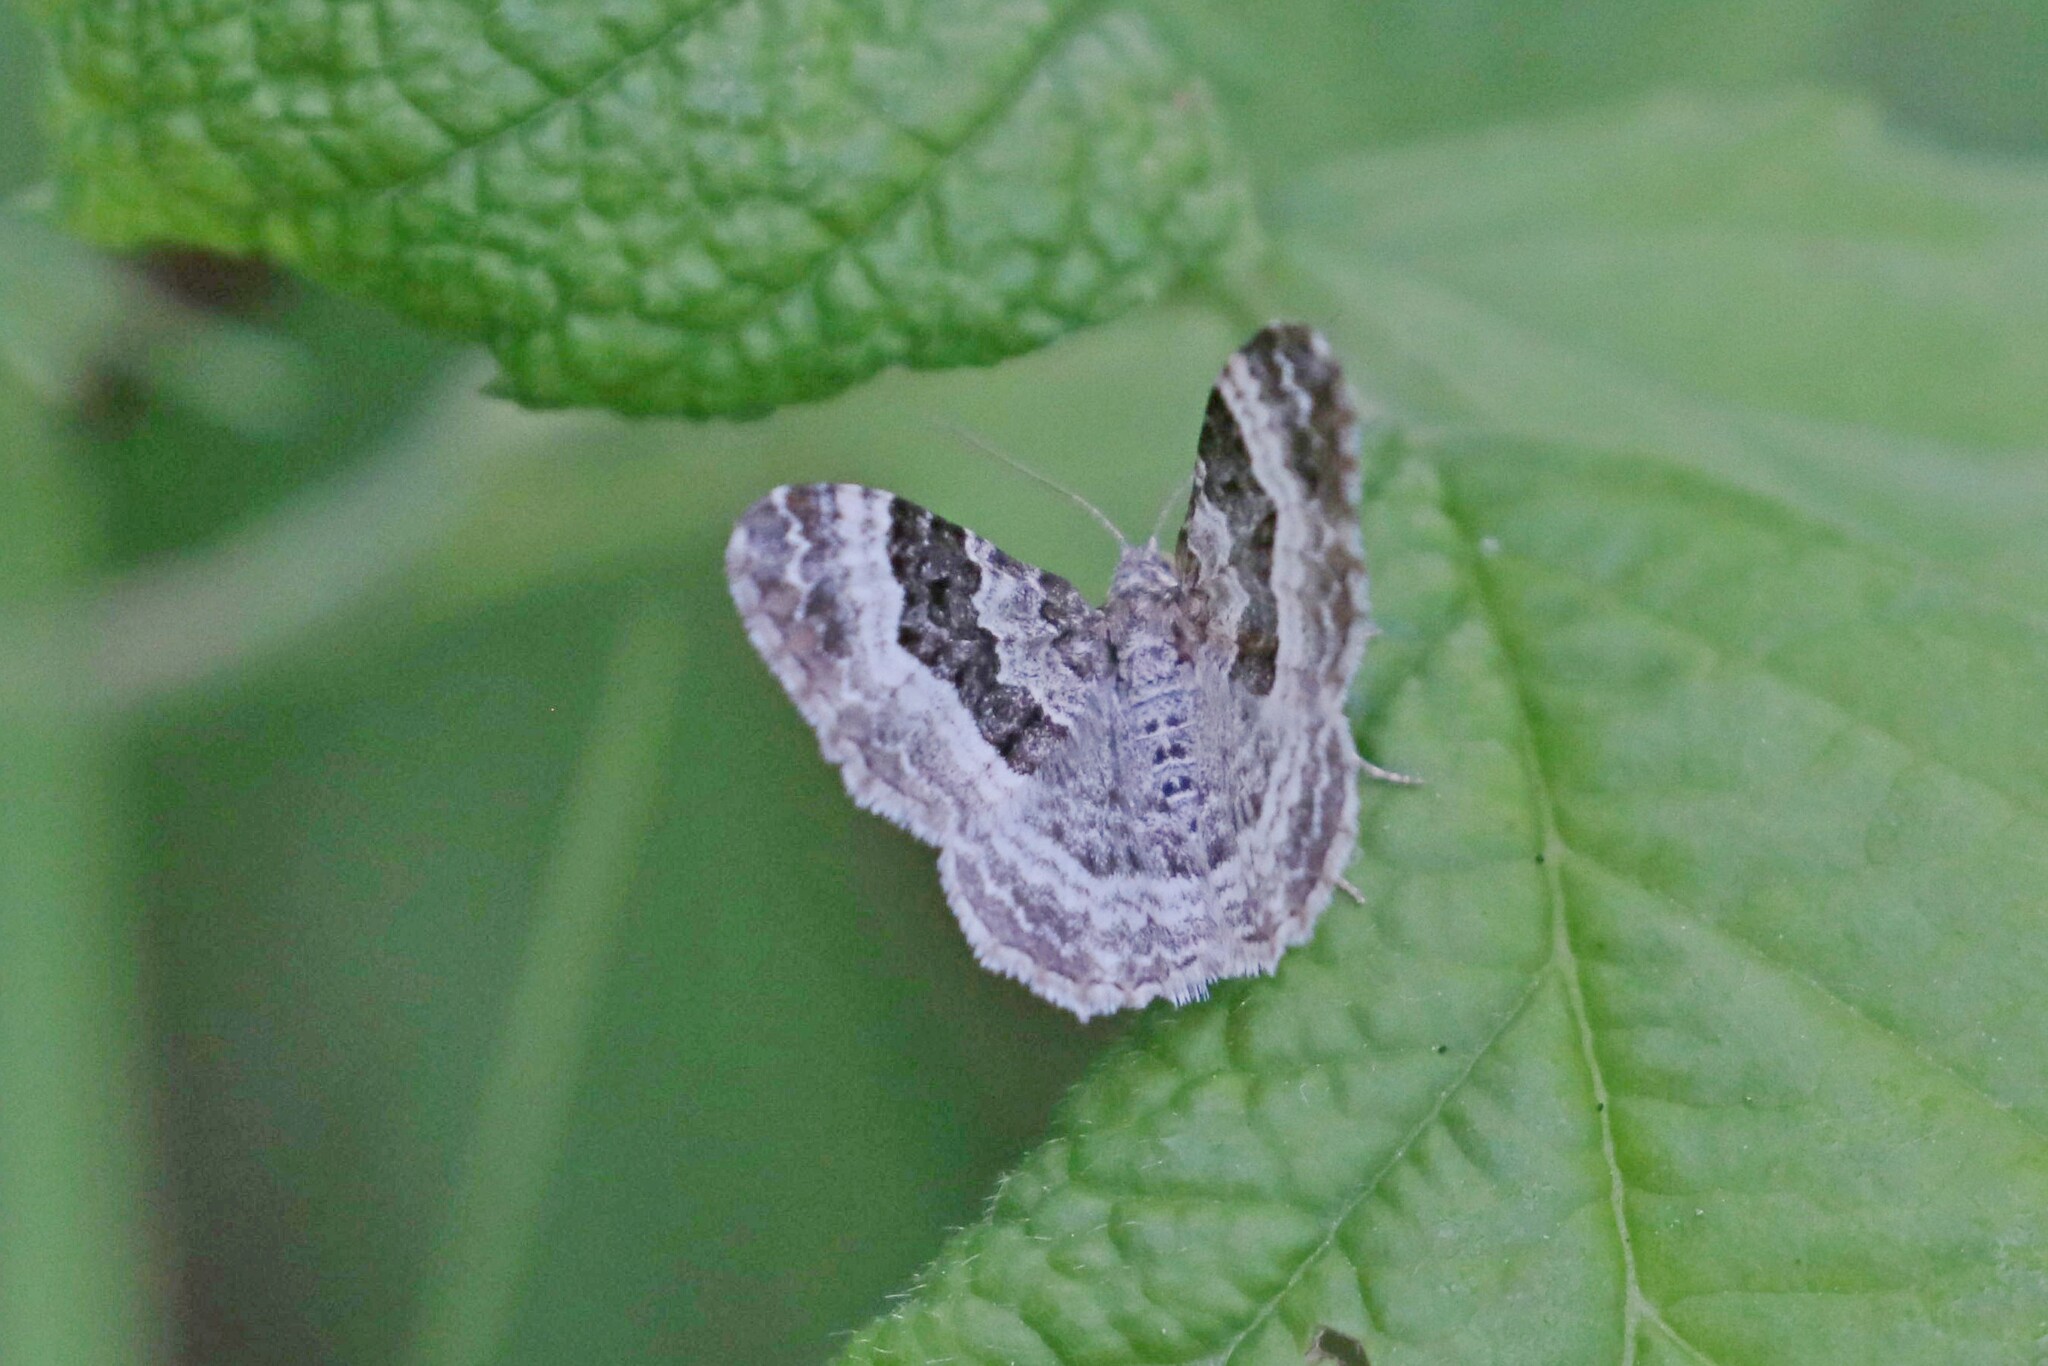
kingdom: Animalia
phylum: Arthropoda
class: Insecta
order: Lepidoptera
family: Geometridae
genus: Epirrhoe
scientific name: Epirrhoe alternata
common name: Common carpet
